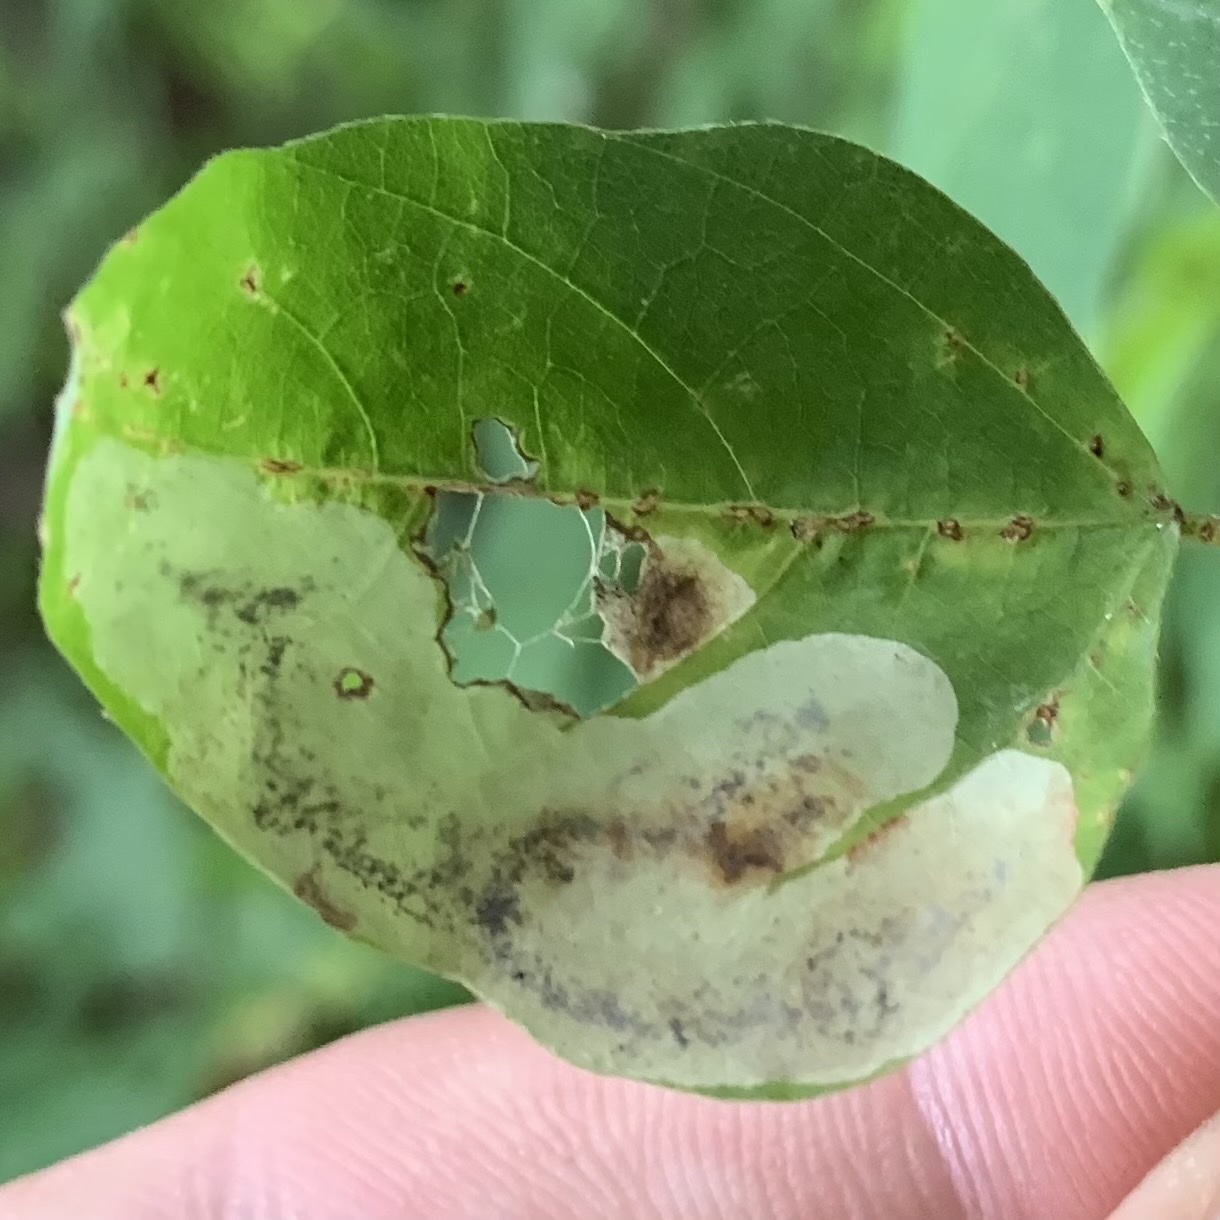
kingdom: Animalia
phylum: Arthropoda
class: Insecta
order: Lepidoptera
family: Gracillariidae
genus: Leucanthiza
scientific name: Leucanthiza amphicarpeaefoliella
